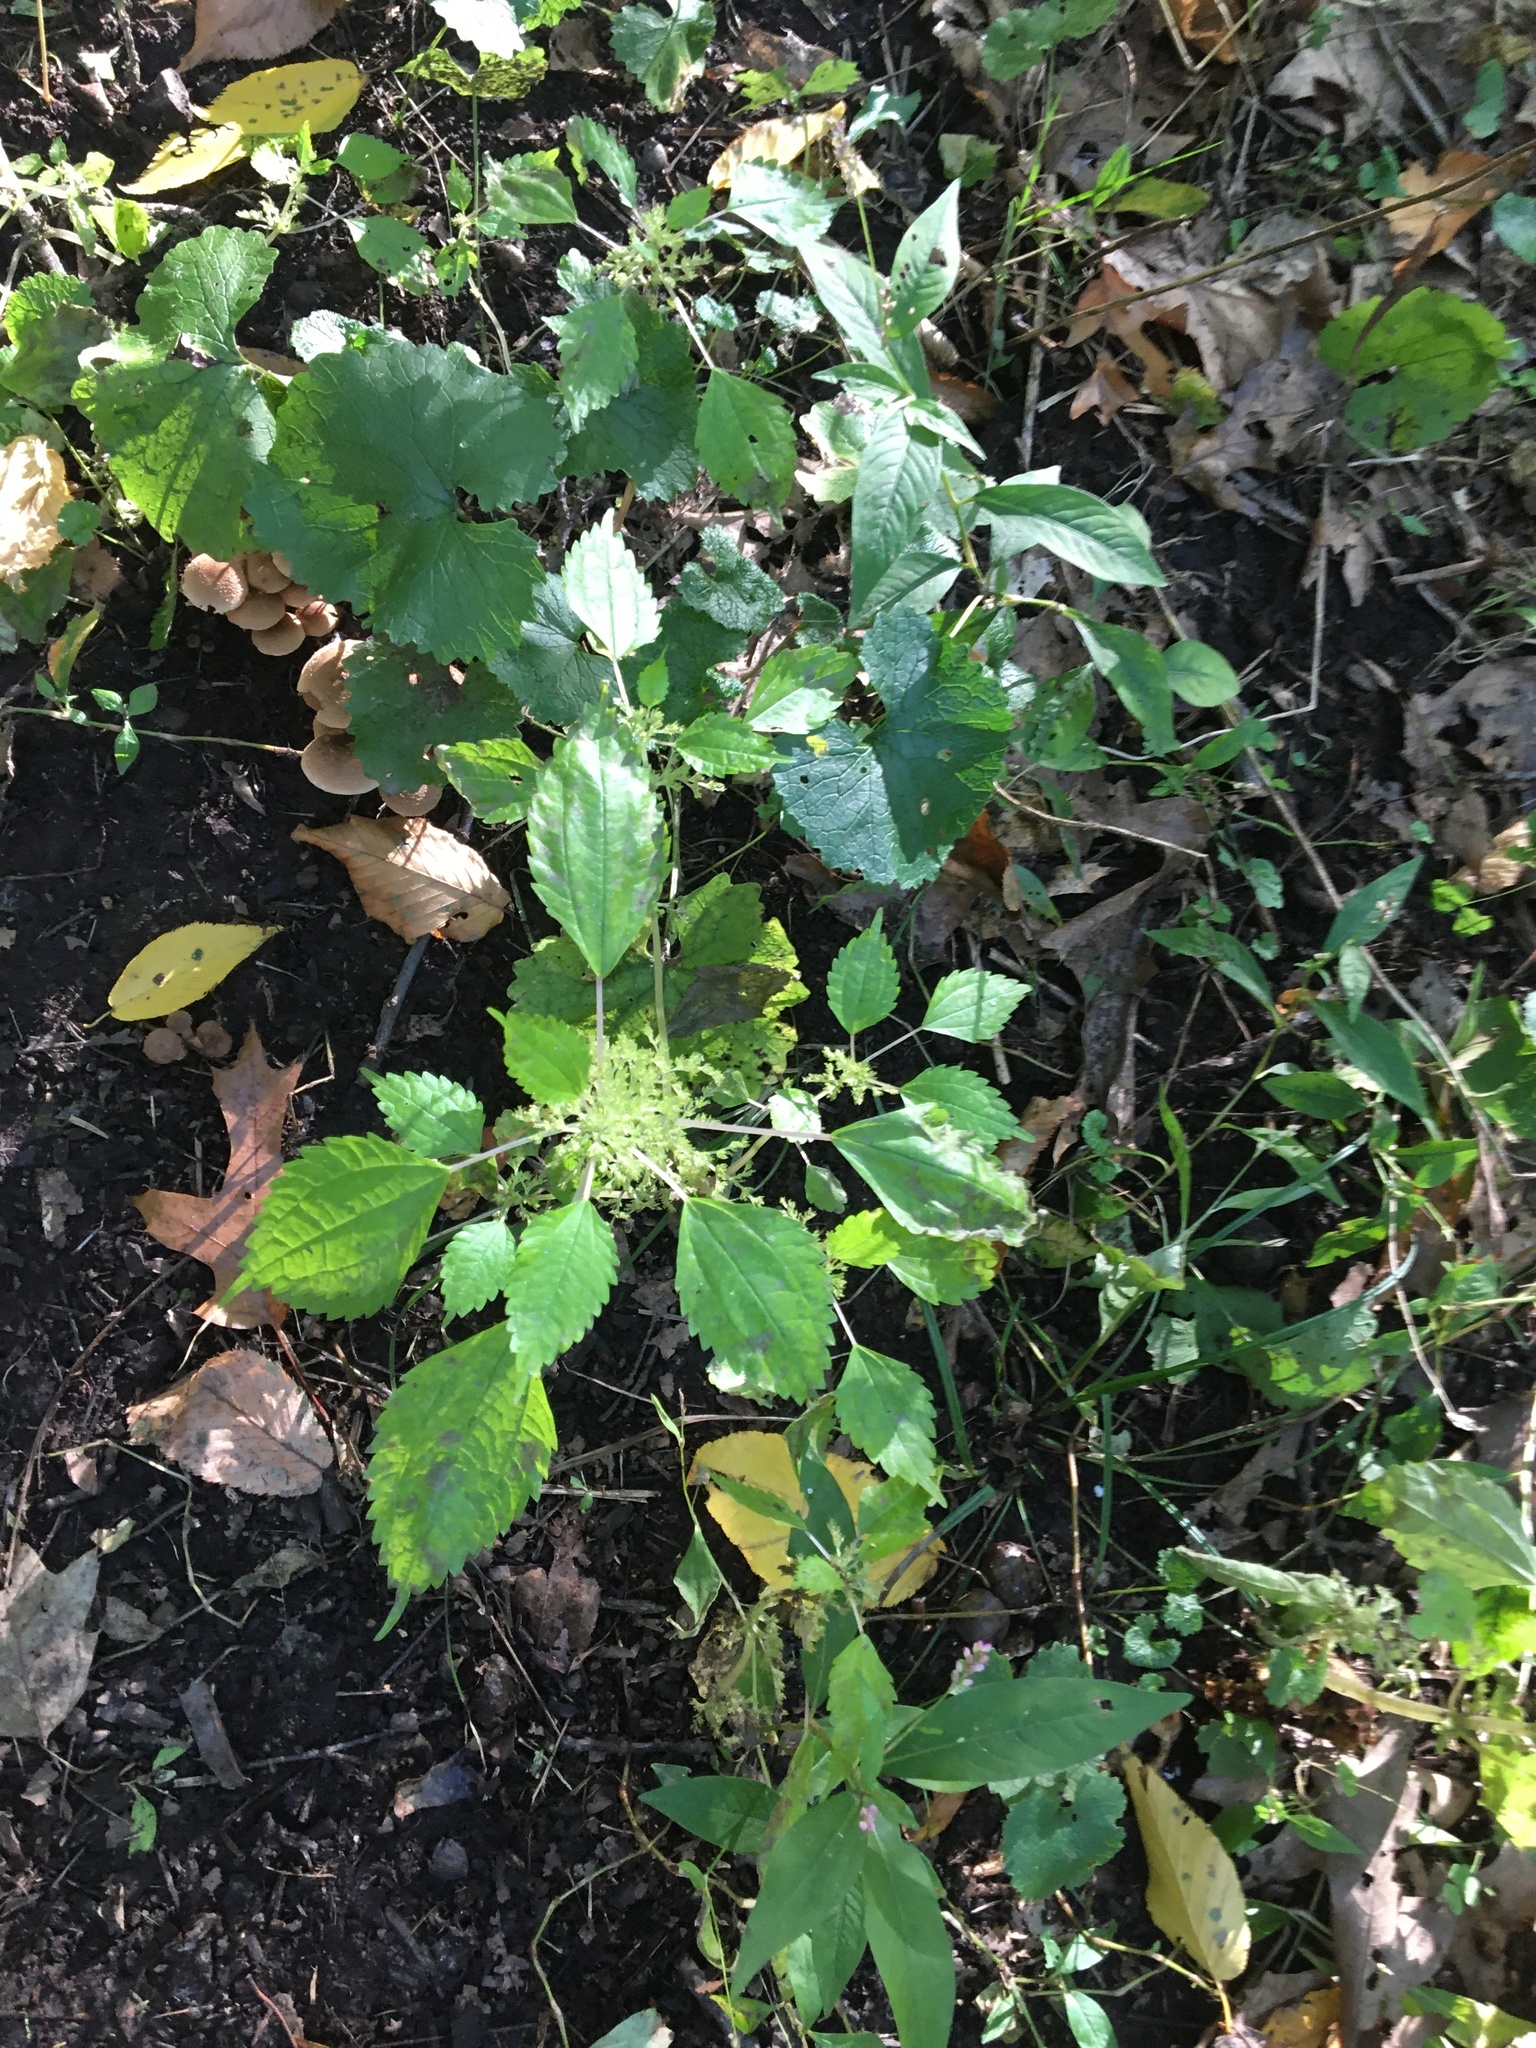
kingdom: Plantae
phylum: Tracheophyta
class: Magnoliopsida
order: Rosales
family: Urticaceae
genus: Pilea
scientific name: Pilea pumila
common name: Clearweed
